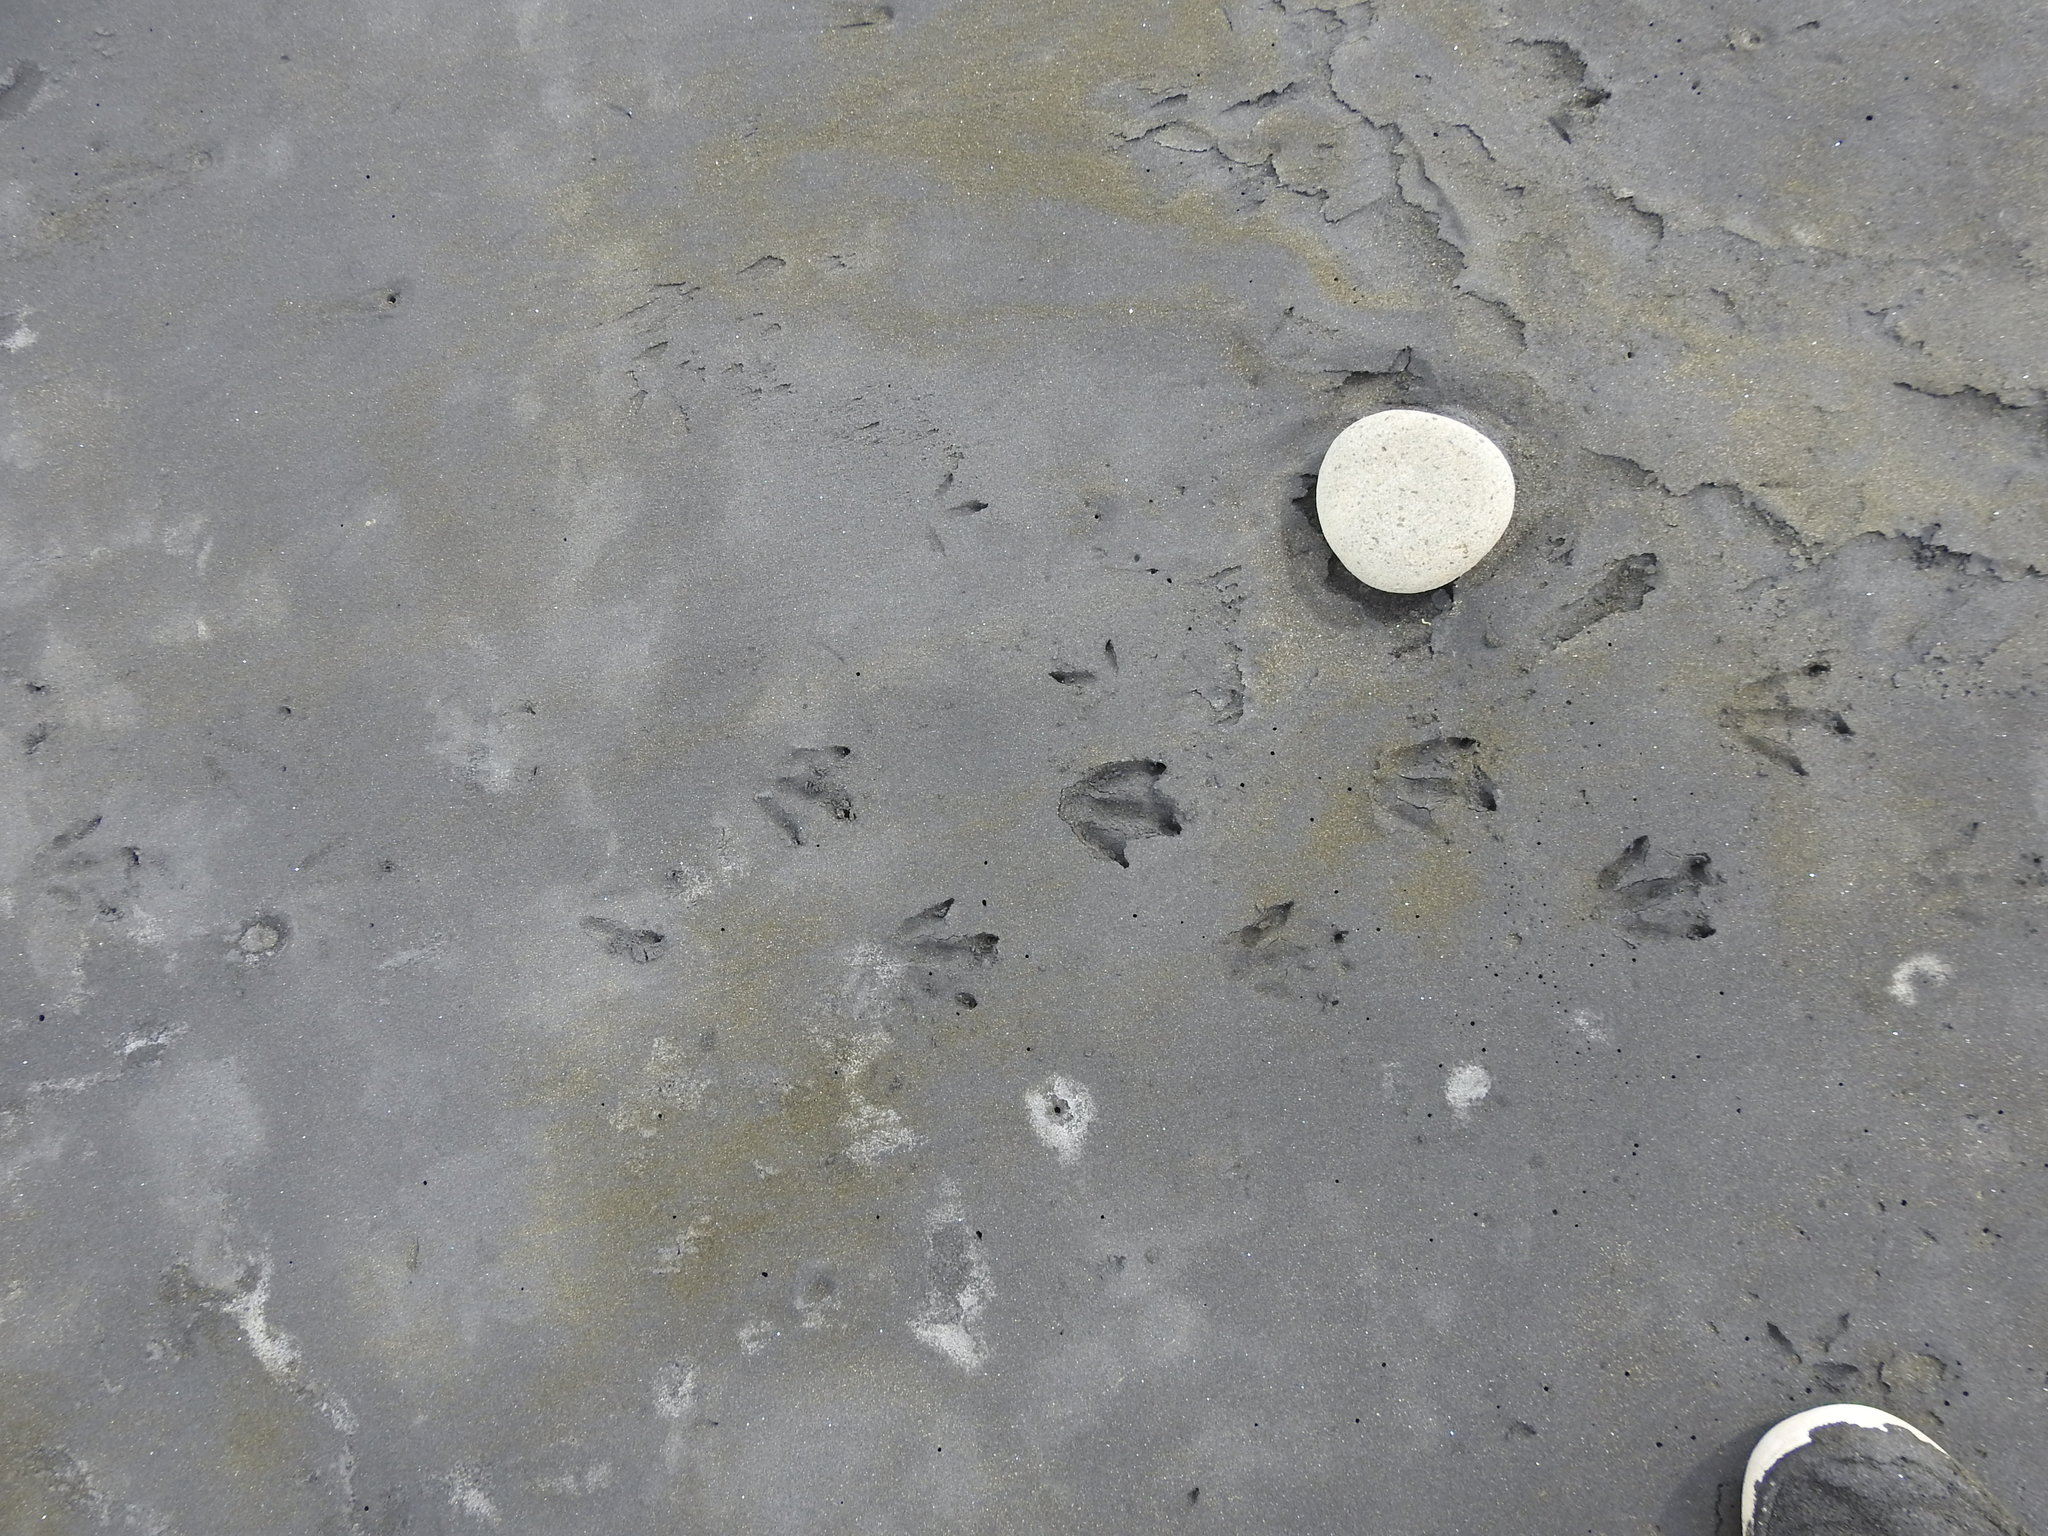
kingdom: Animalia
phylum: Chordata
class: Aves
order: Sphenisciformes
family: Spheniscidae
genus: Eudyptula
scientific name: Eudyptula minor
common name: Little penguin
